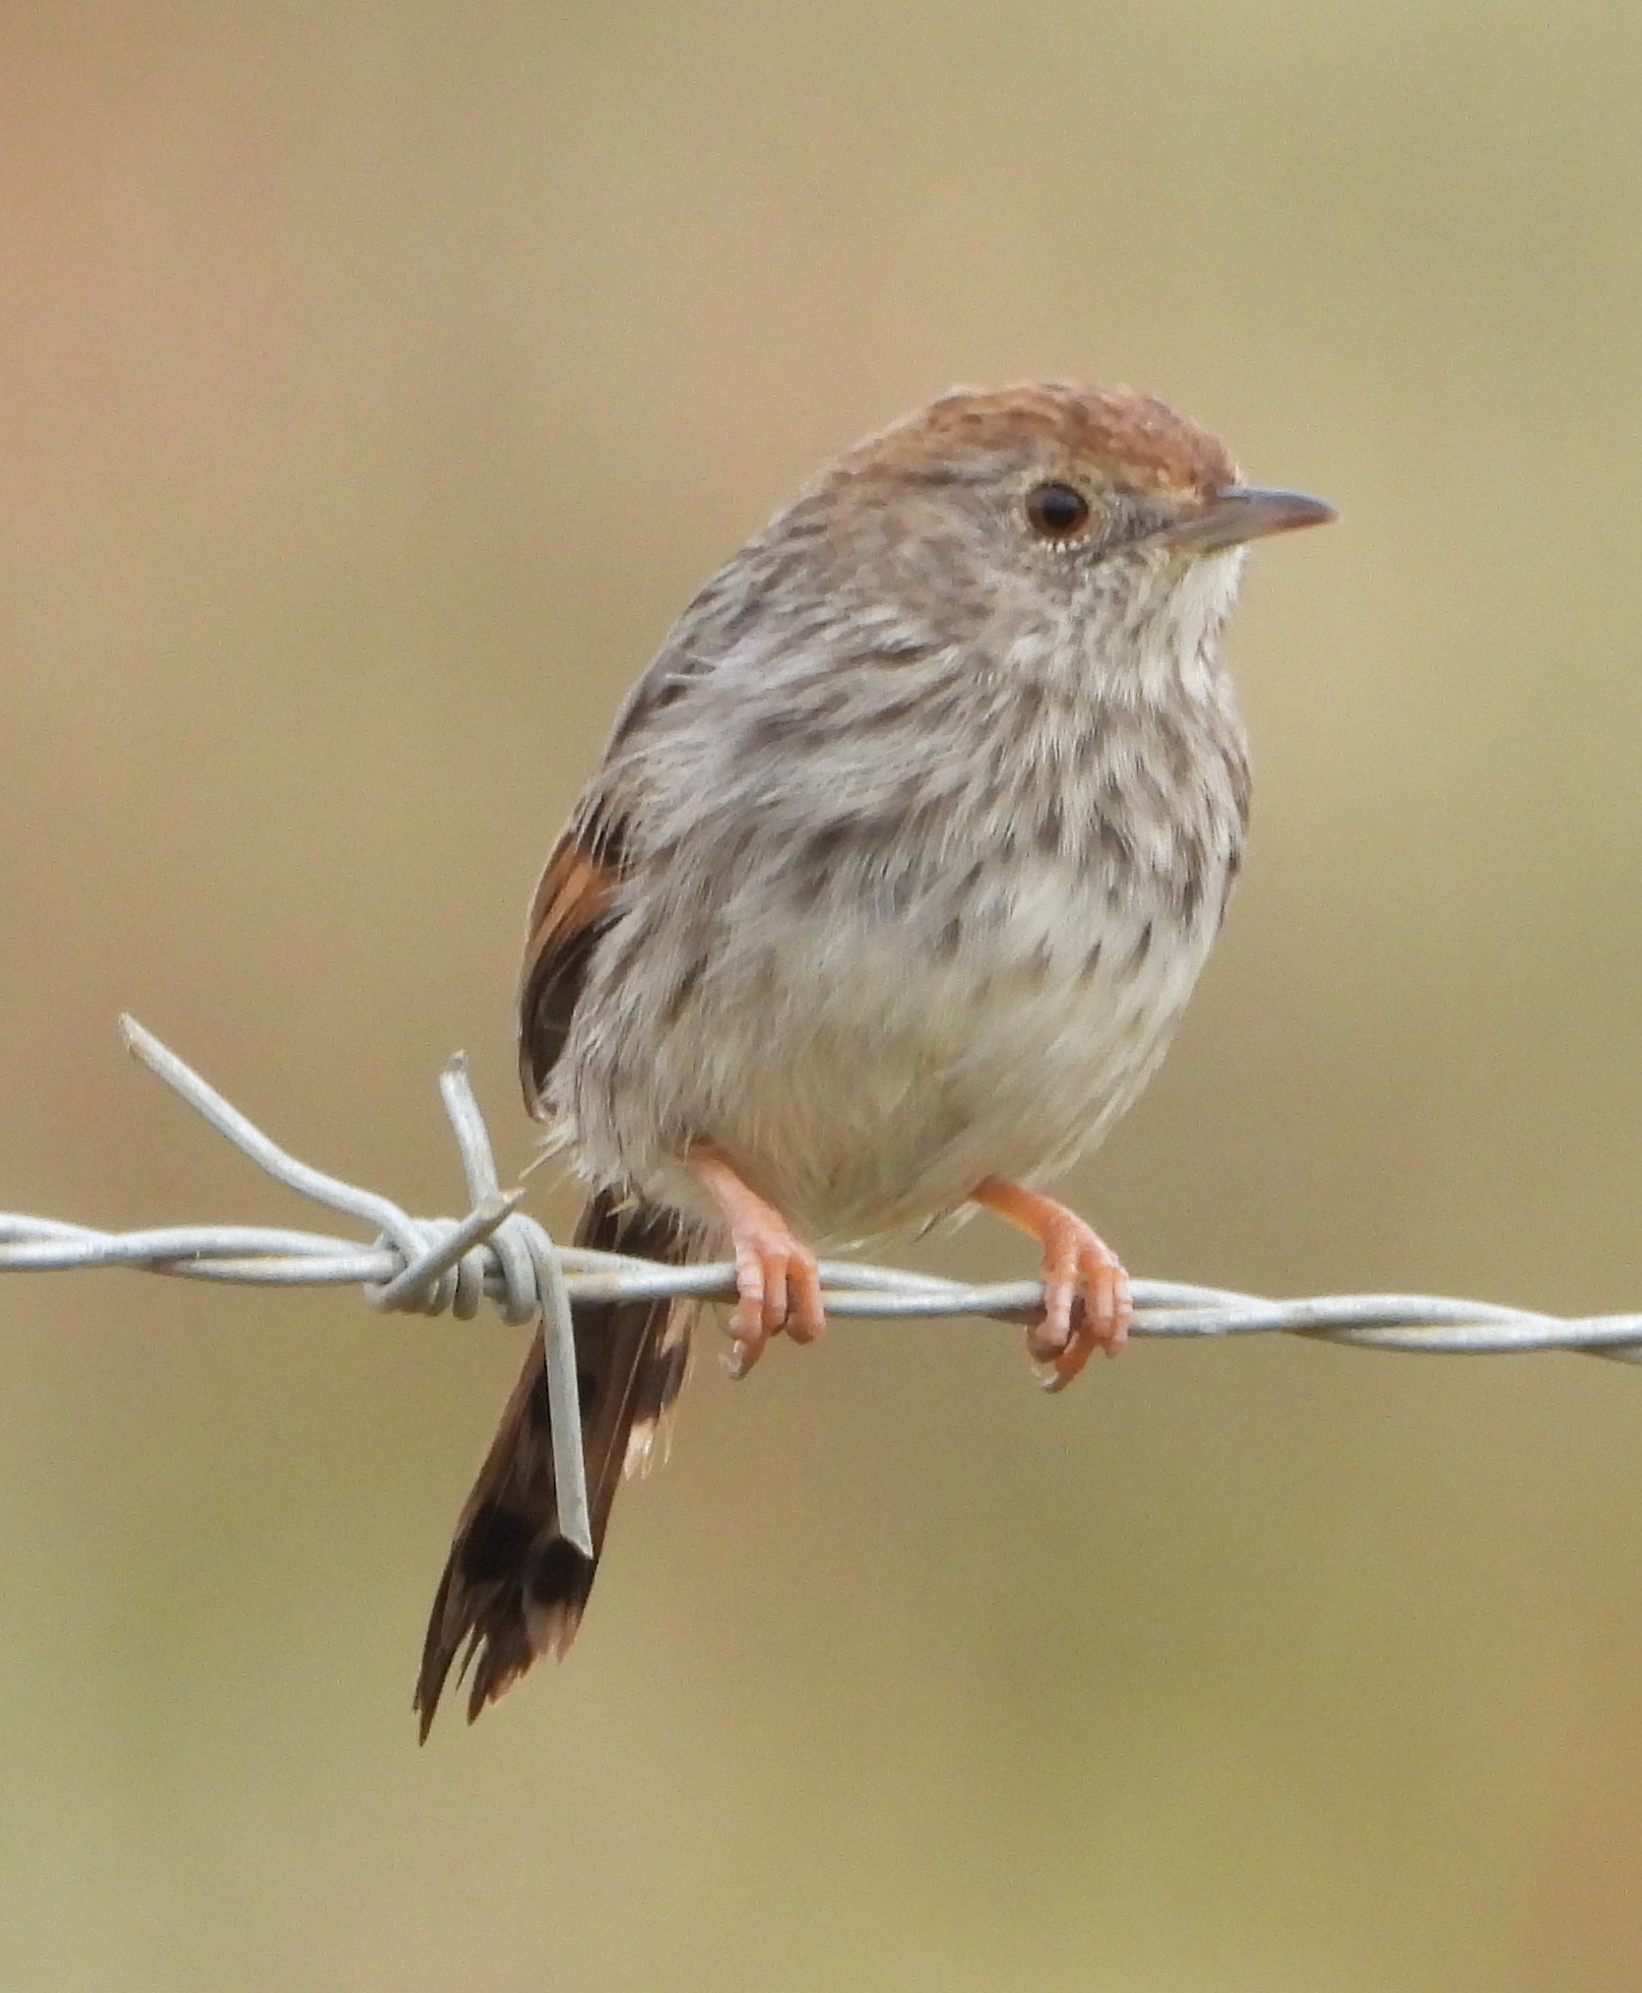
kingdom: Animalia
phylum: Chordata
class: Aves
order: Passeriformes
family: Cisticolidae
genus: Cisticola
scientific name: Cisticola subruficapilla
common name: Grey-backed cisticola
